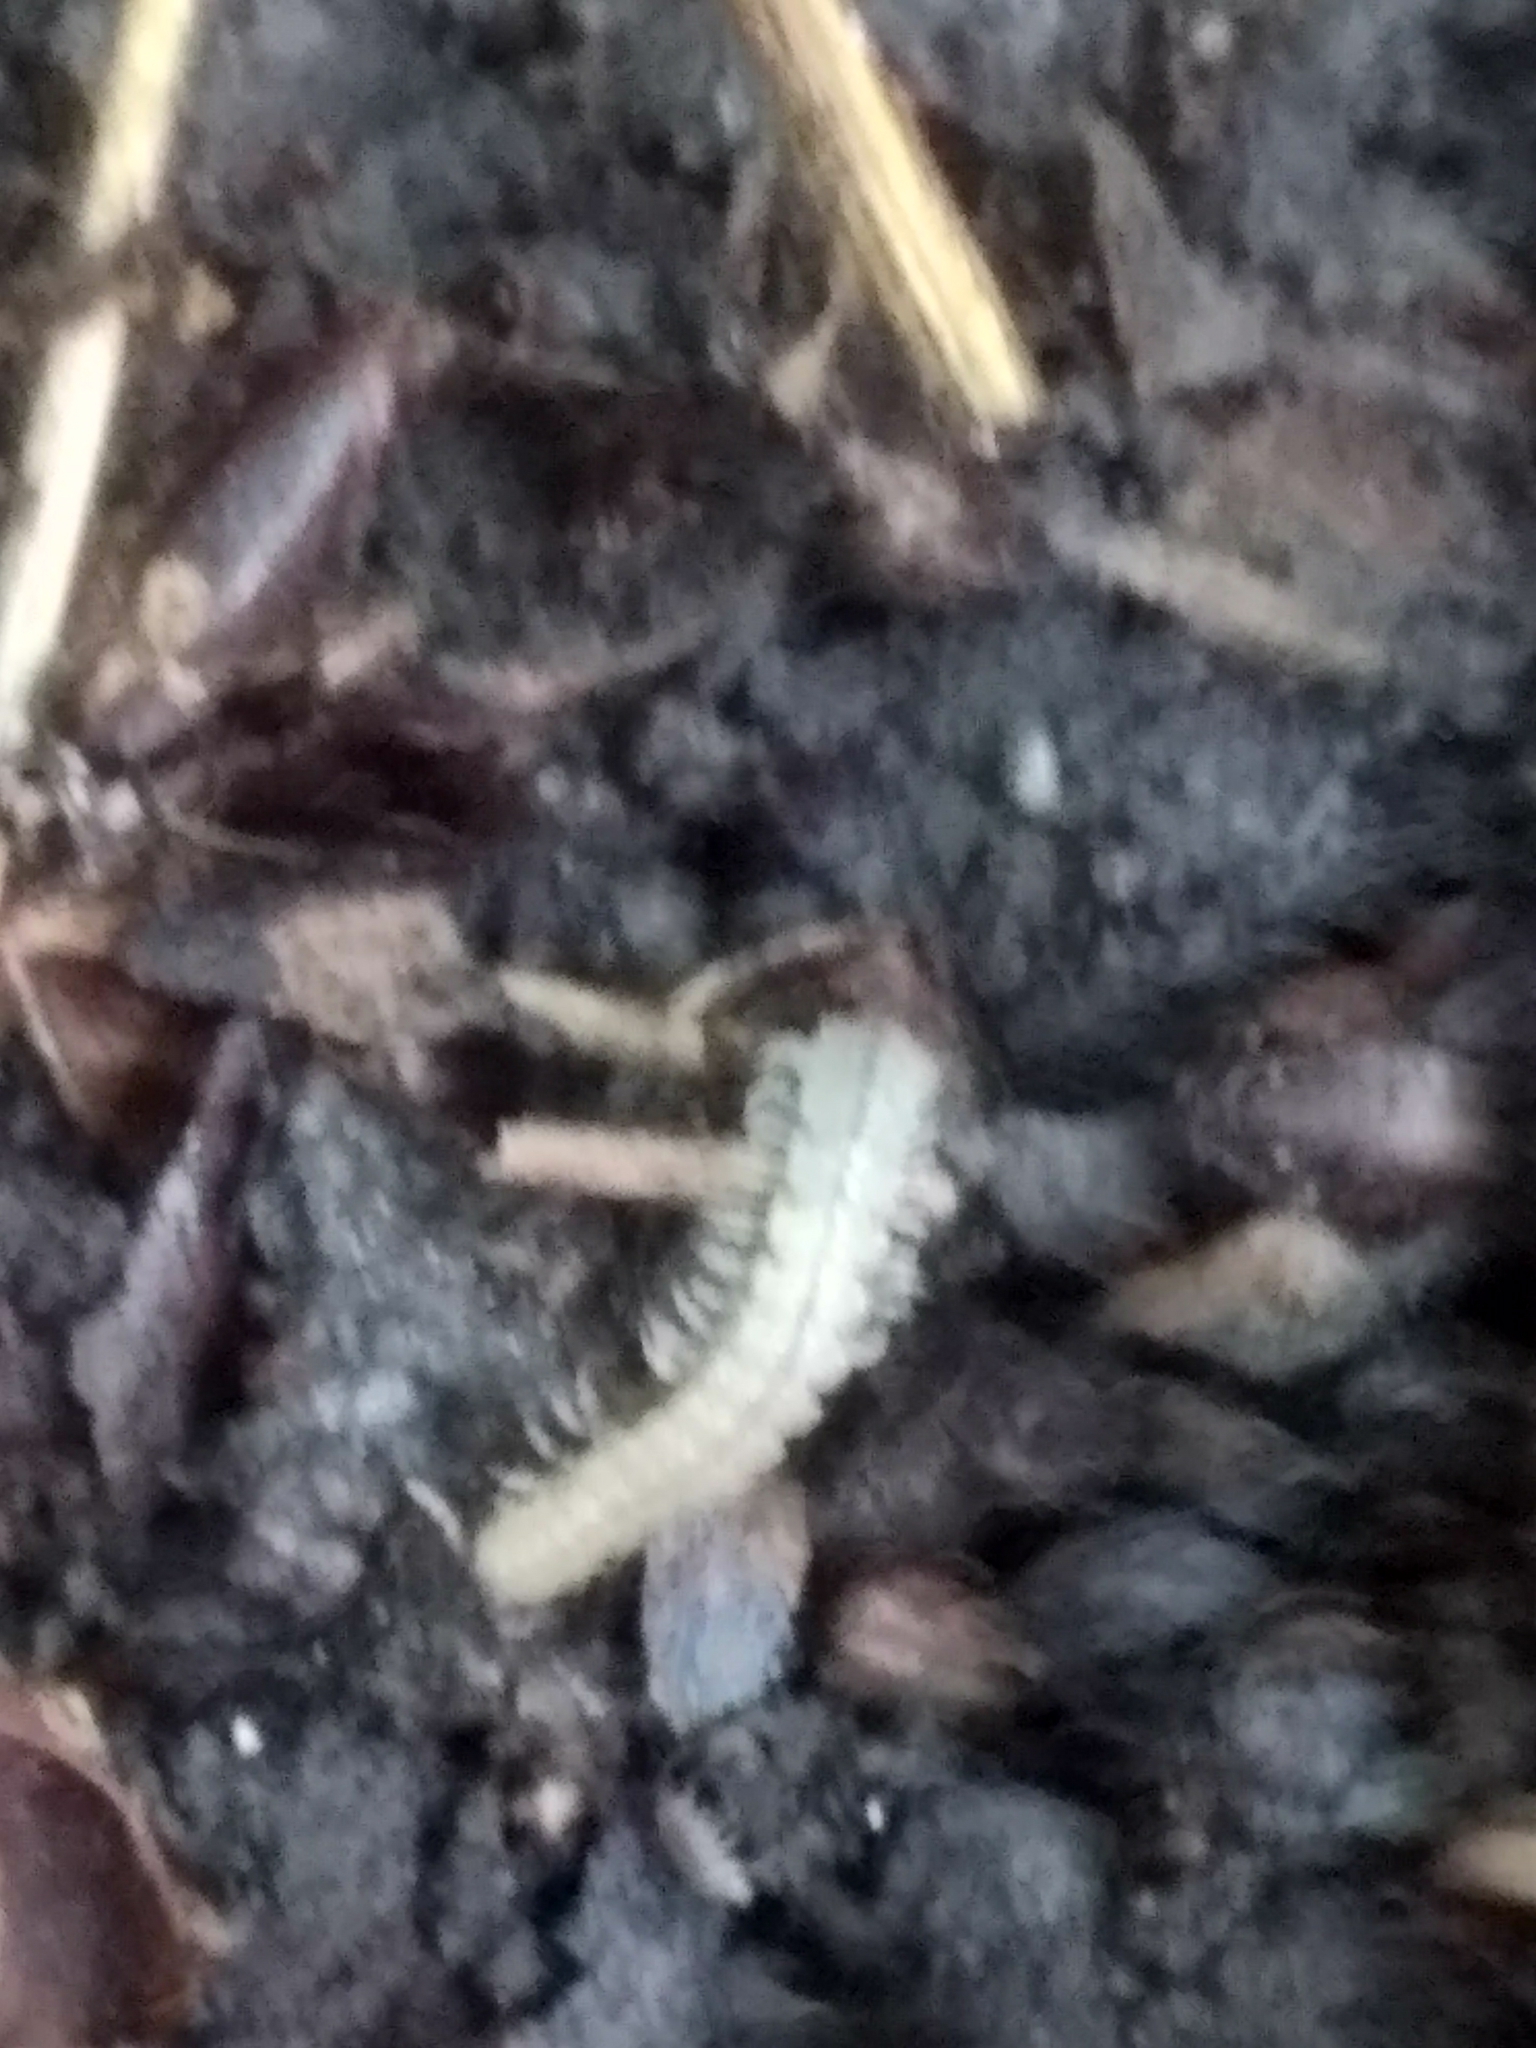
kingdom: Animalia
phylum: Arthropoda
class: Diplopoda
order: Polydesmida
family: Paradoxosomatidae
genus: Oxidus
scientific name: Oxidus gracilis
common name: Greenhouse millipede
